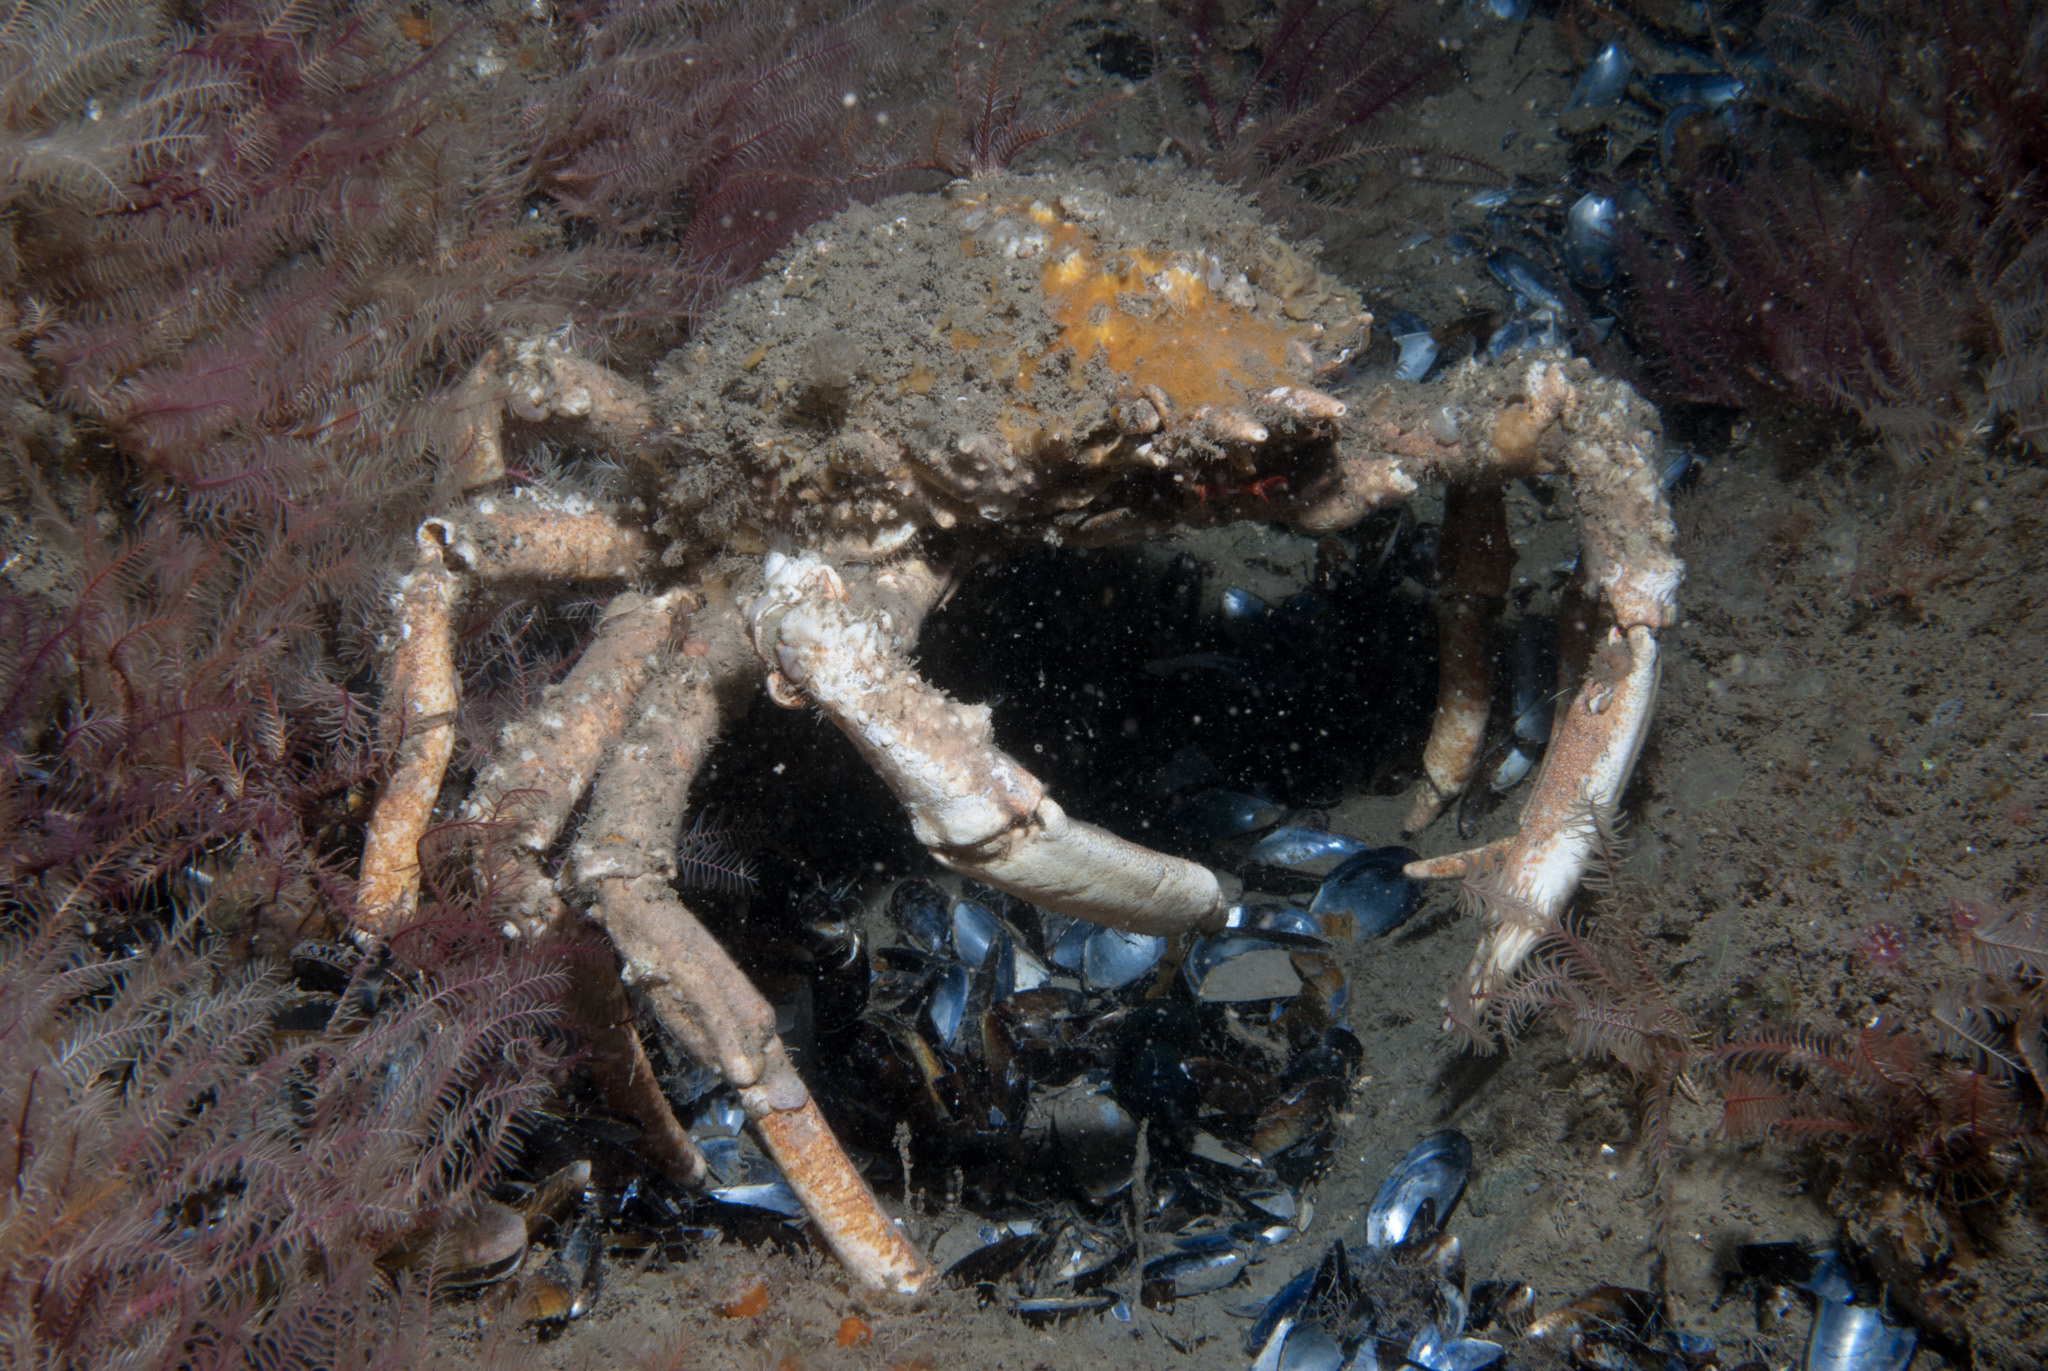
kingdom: Animalia
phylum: Arthropoda
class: Malacostraca
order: Decapoda
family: Majidae
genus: Maja
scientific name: Maja brachydactyla
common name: Common spider crab
